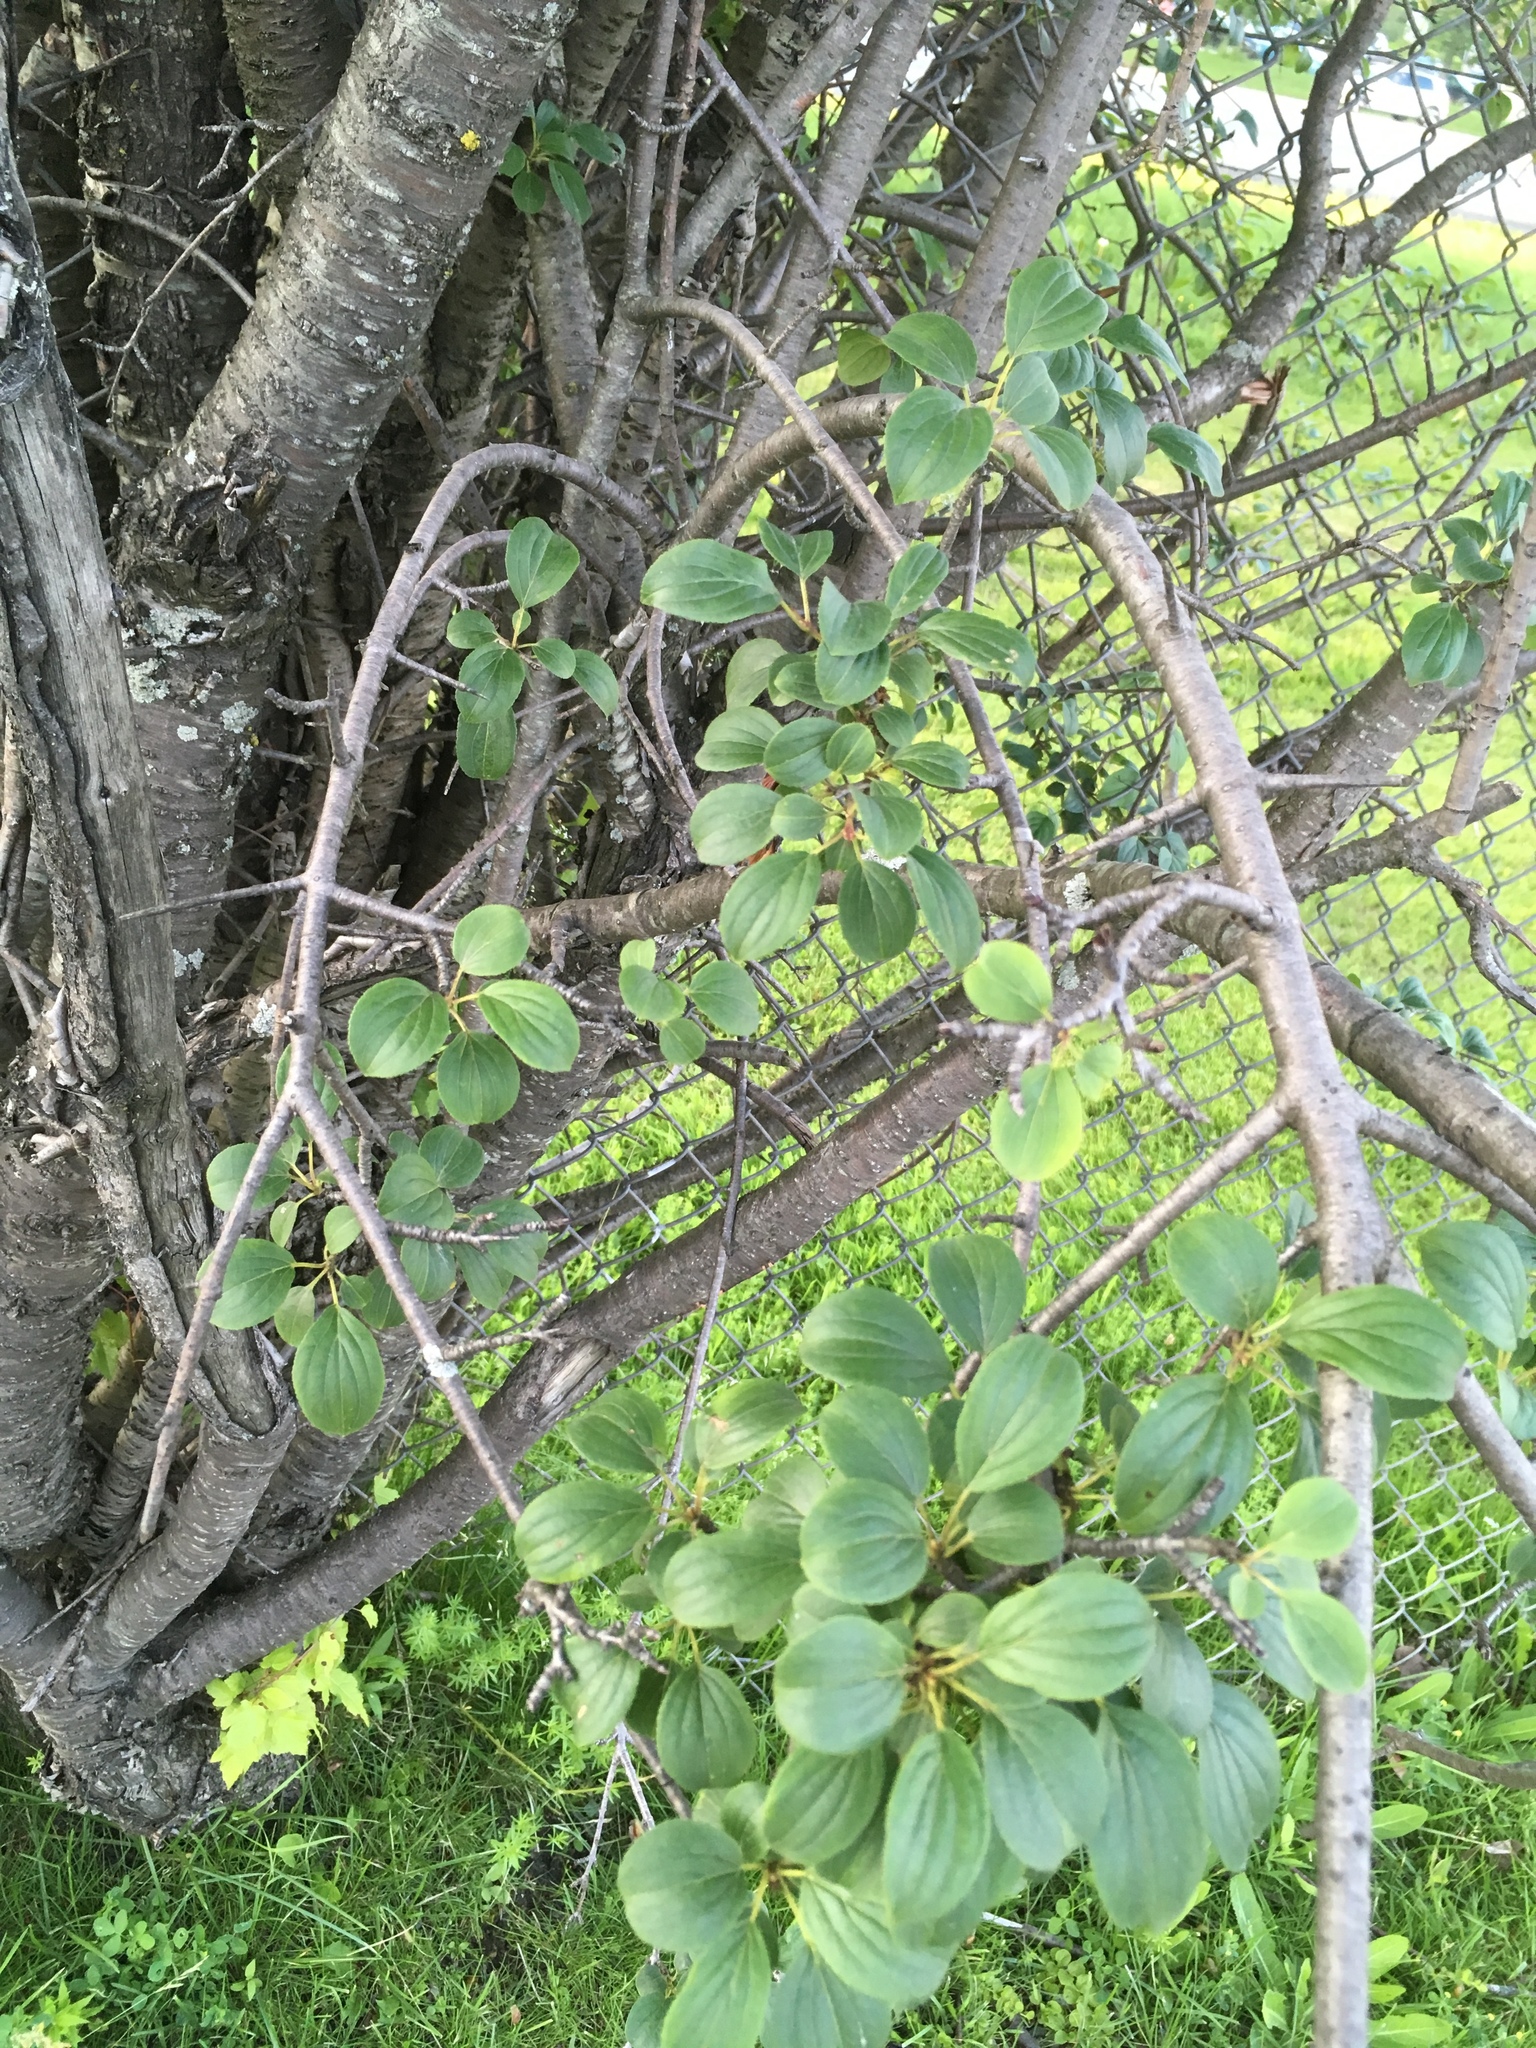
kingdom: Plantae
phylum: Tracheophyta
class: Magnoliopsida
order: Rosales
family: Rhamnaceae
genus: Rhamnus
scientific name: Rhamnus cathartica
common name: Common buckthorn
